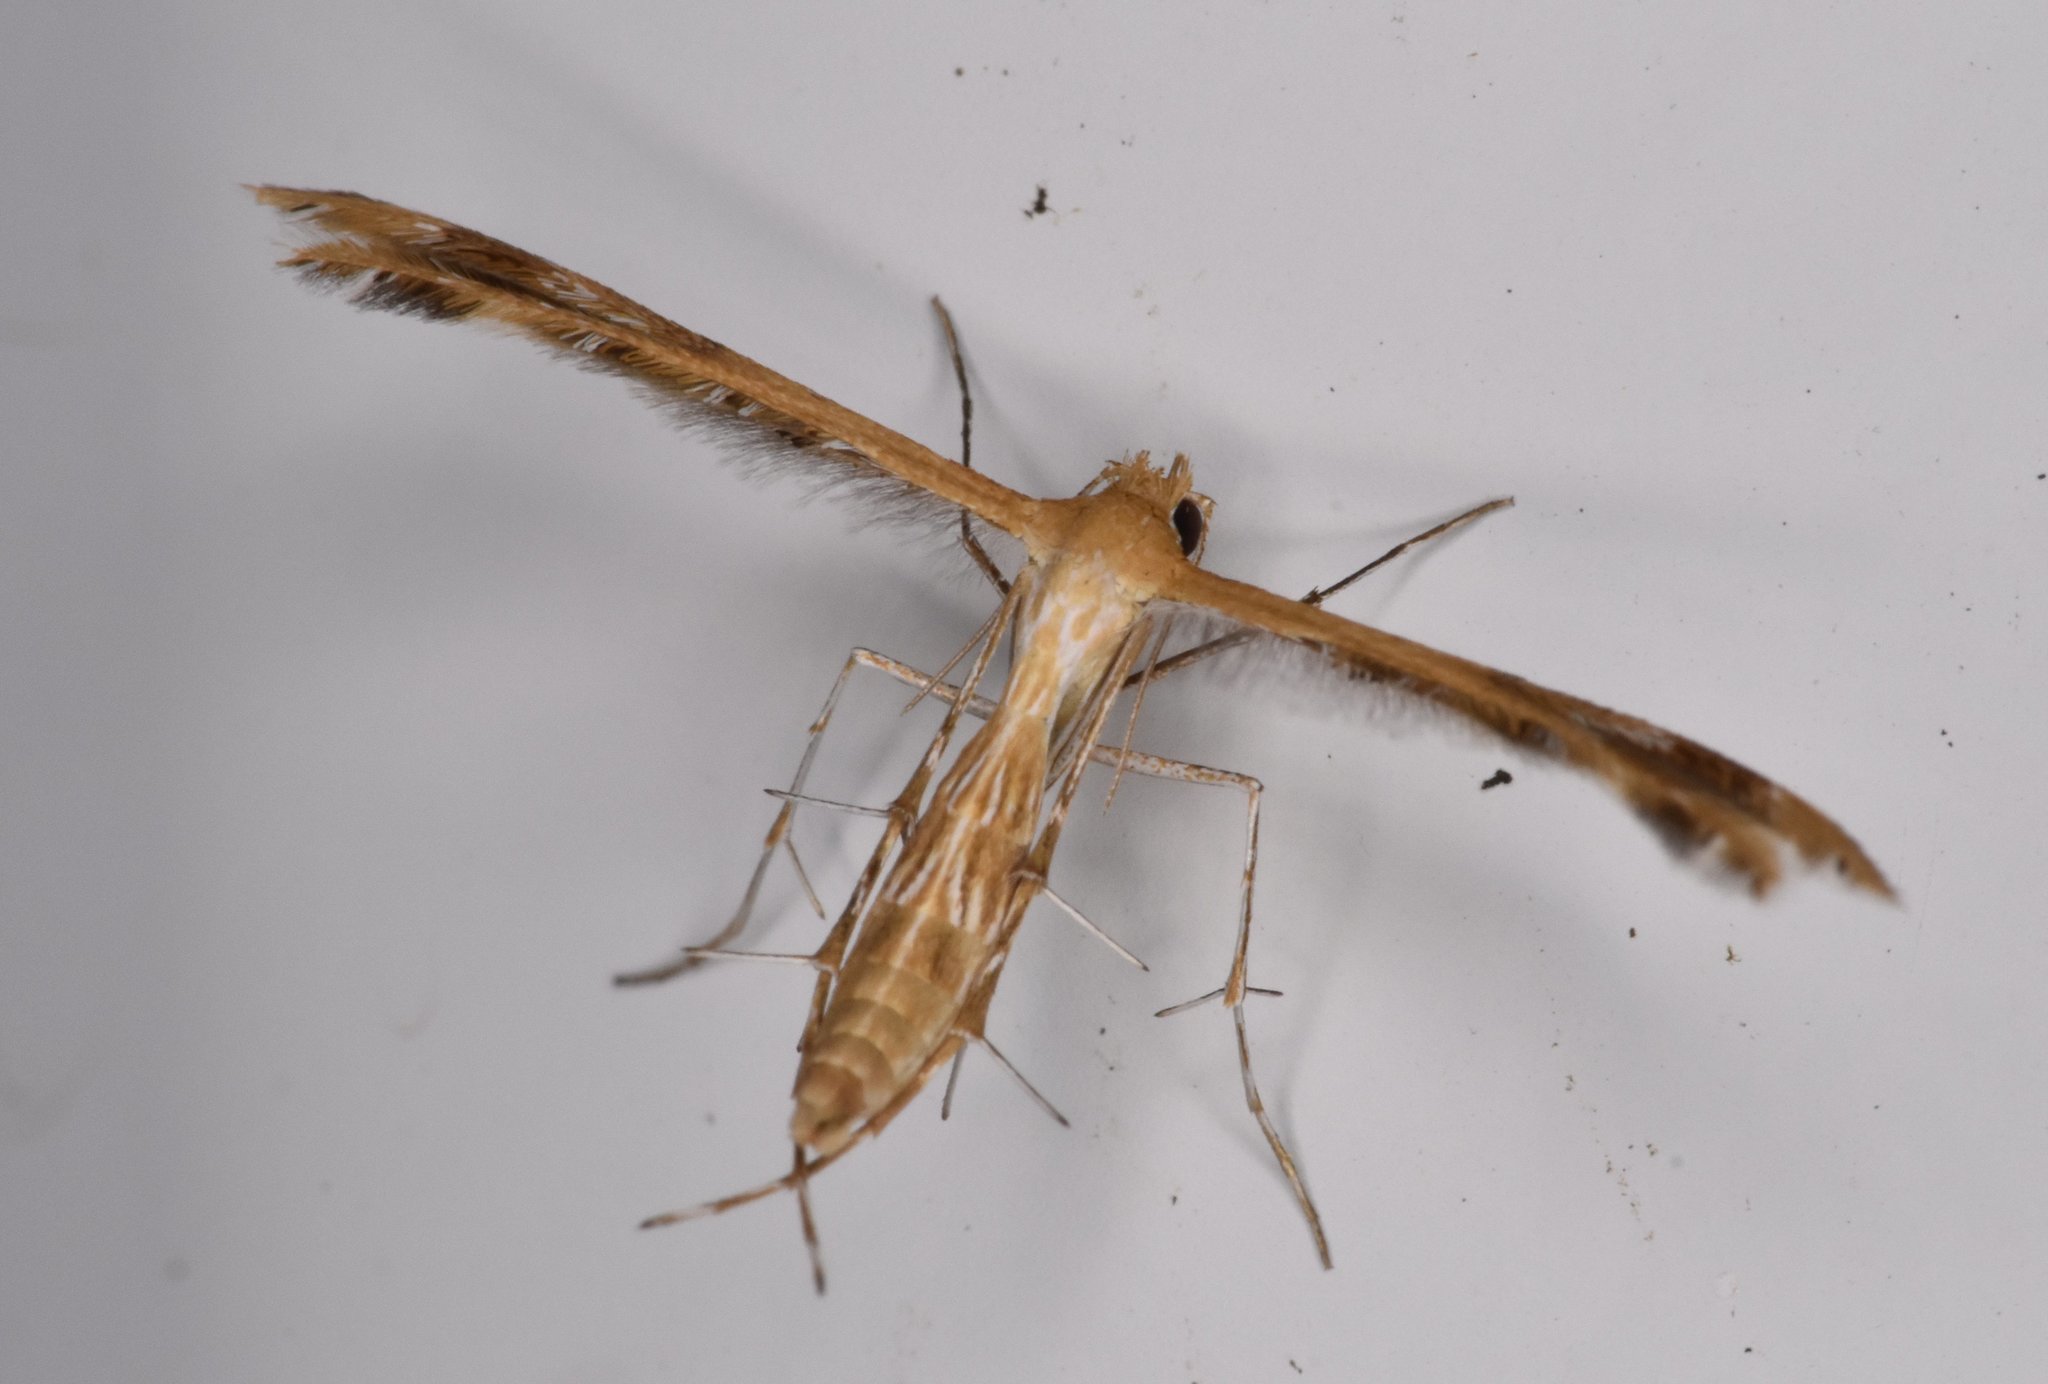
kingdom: Animalia
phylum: Arthropoda
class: Insecta
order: Lepidoptera
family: Pterophoridae
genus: Megalorhipida
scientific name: Megalorhipida leucodactylus
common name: Plume moth
